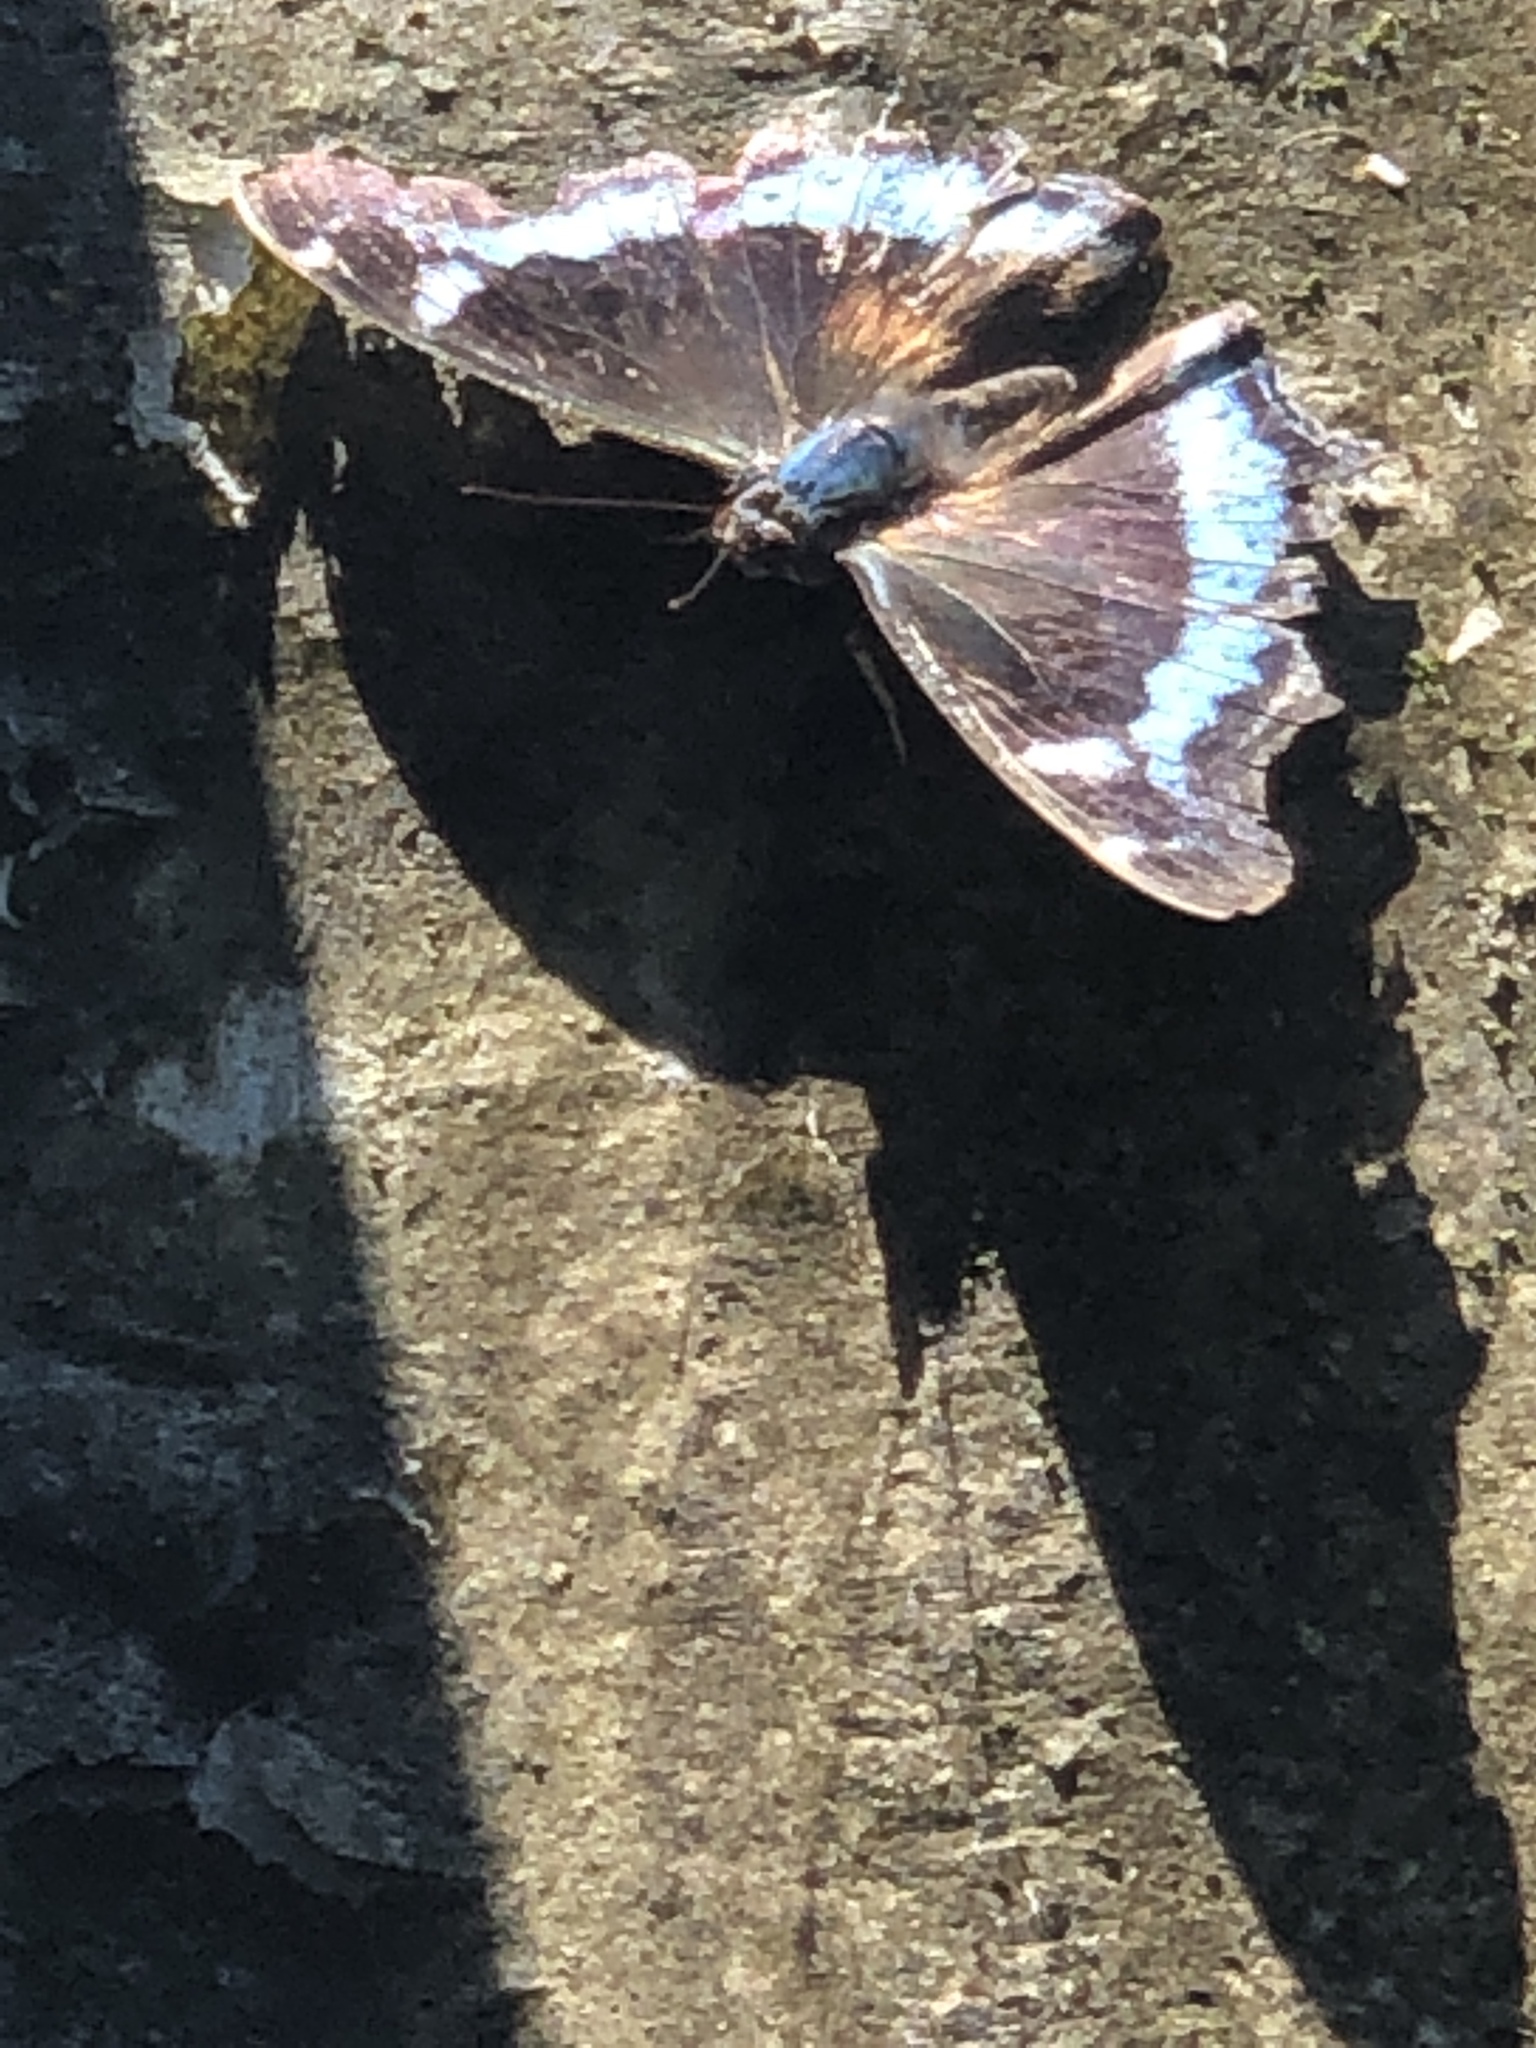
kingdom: Animalia
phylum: Arthropoda
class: Insecta
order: Lepidoptera
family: Nymphalidae
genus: Vanessa
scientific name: Vanessa Kaniska canace
